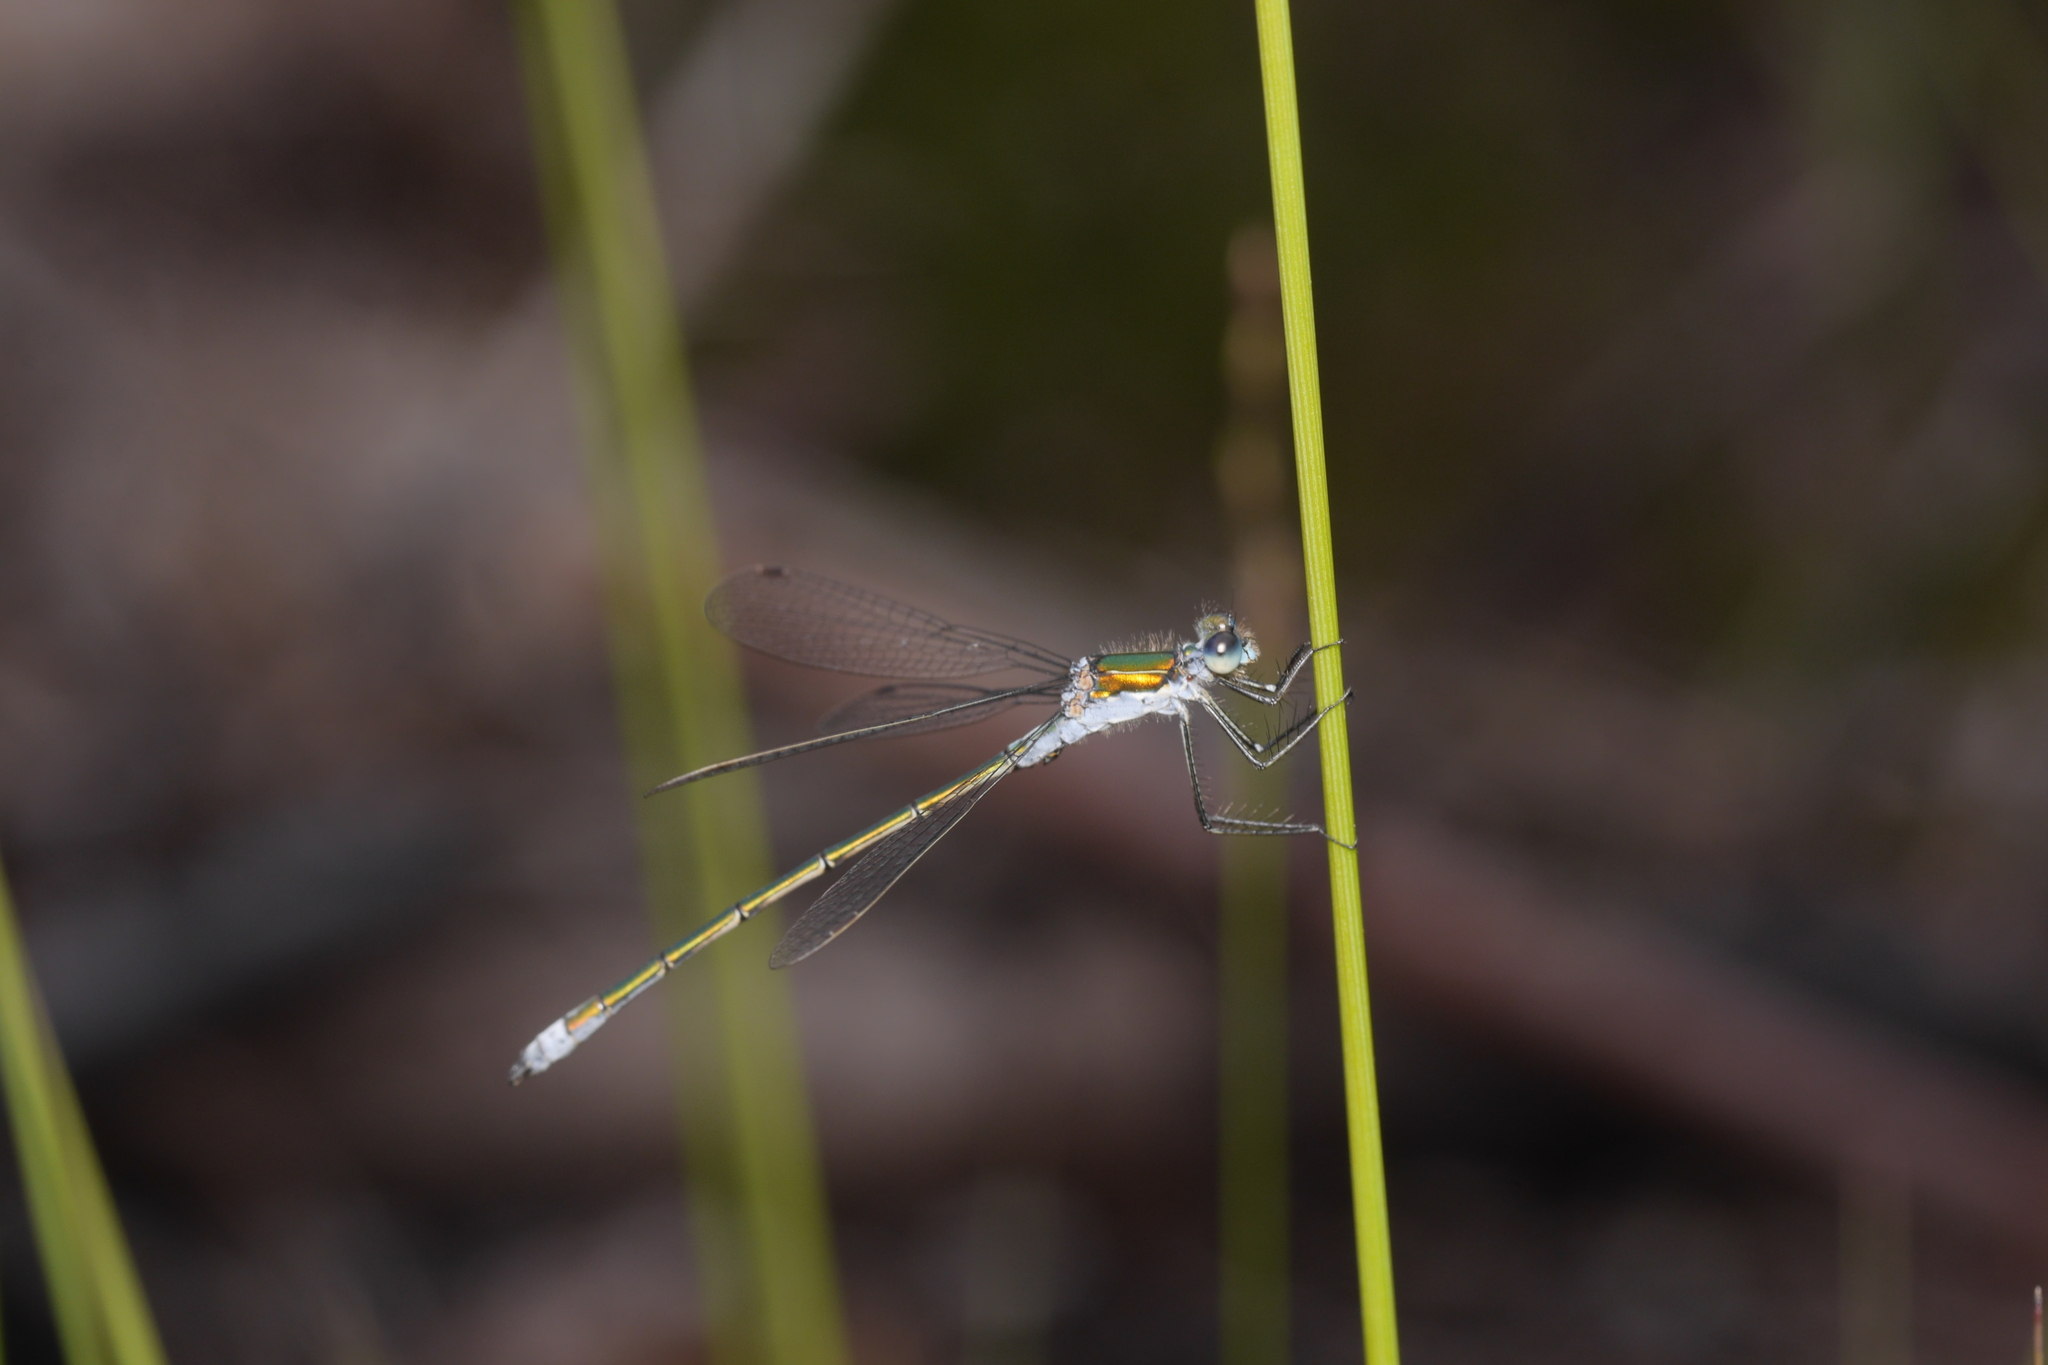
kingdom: Animalia
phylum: Arthropoda
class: Insecta
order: Odonata
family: Lestidae
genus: Lestes
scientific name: Lestes sponsa
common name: Common spreadwing
